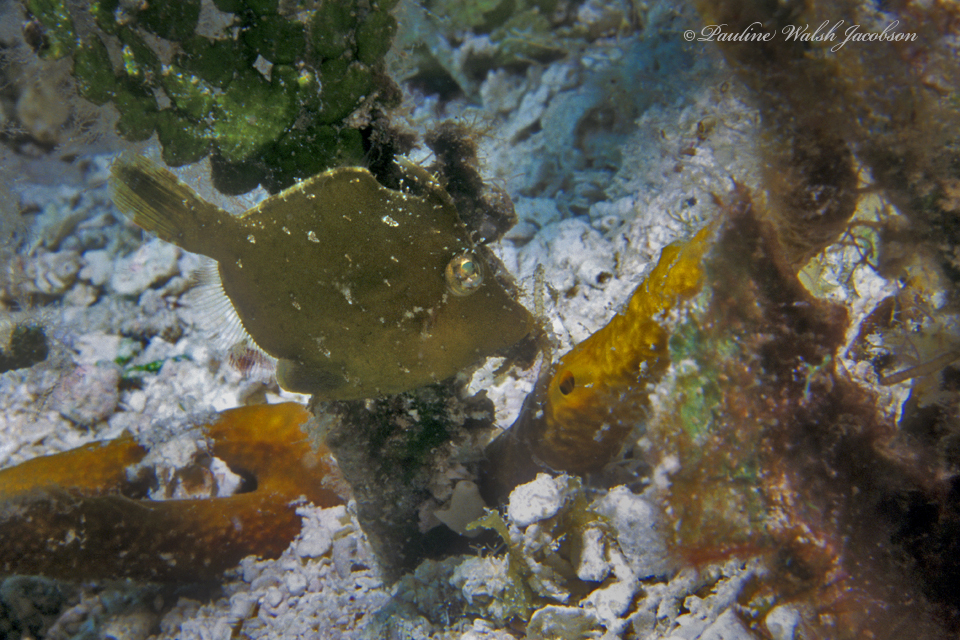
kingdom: Animalia
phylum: Chordata
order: Tetraodontiformes
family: Monacanthidae
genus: Monacanthus
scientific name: Monacanthus ciliatus
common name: Fringed filefish
